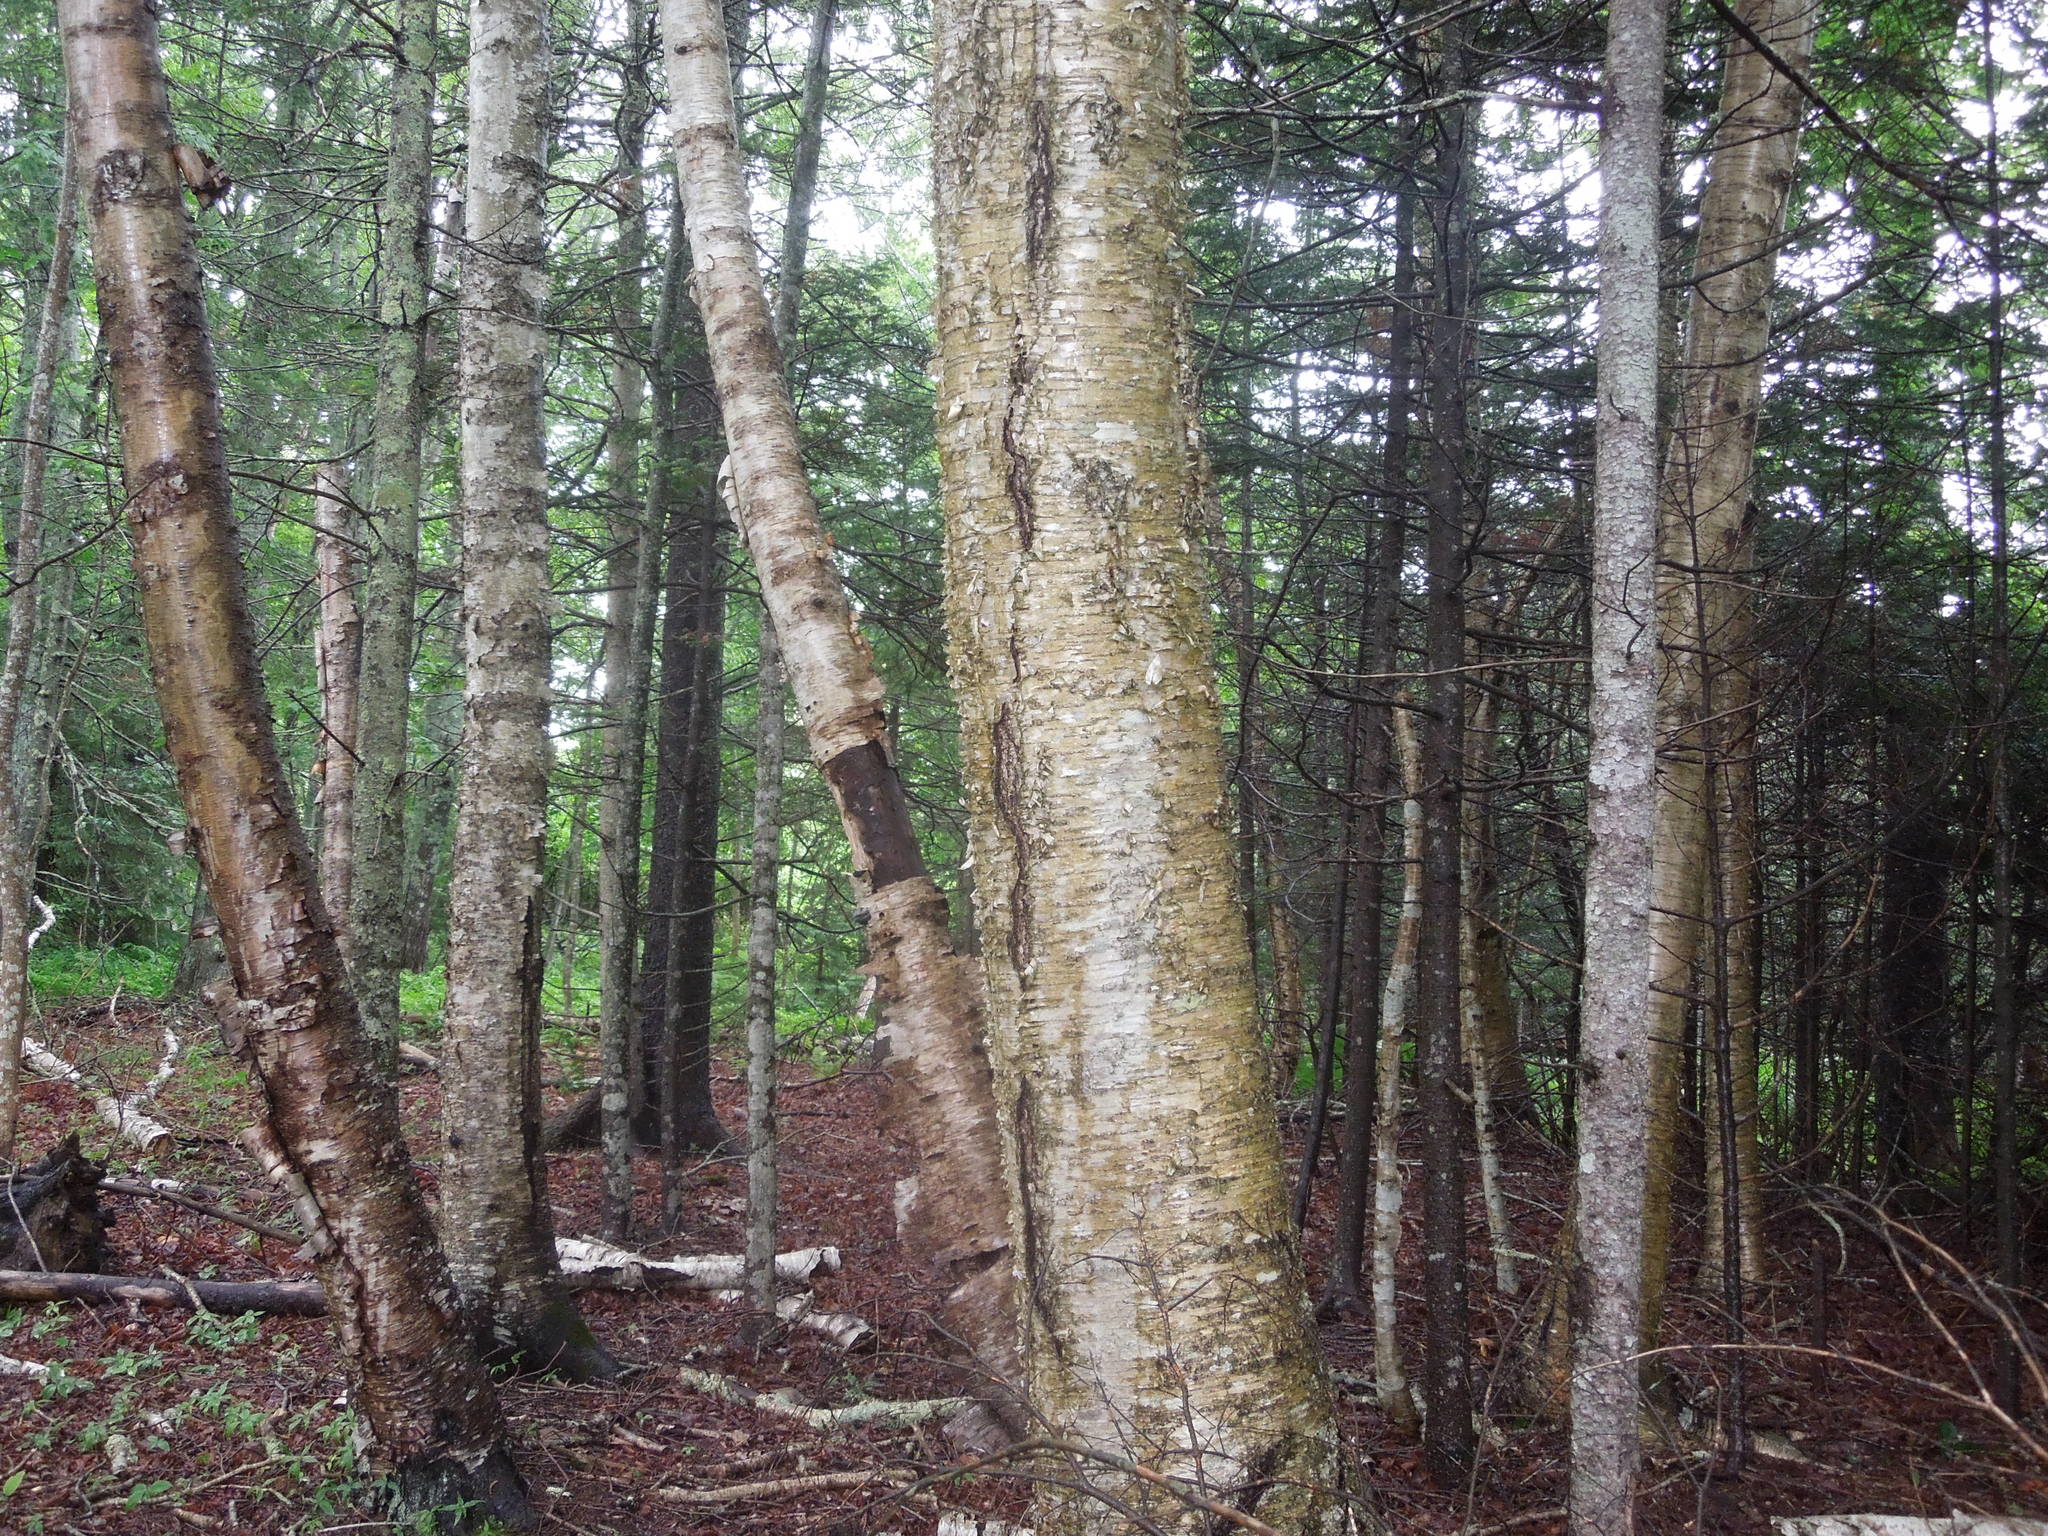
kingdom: Plantae
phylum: Tracheophyta
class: Magnoliopsida
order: Fagales
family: Betulaceae
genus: Betula
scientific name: Betula alleghaniensis
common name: Yellow birch
